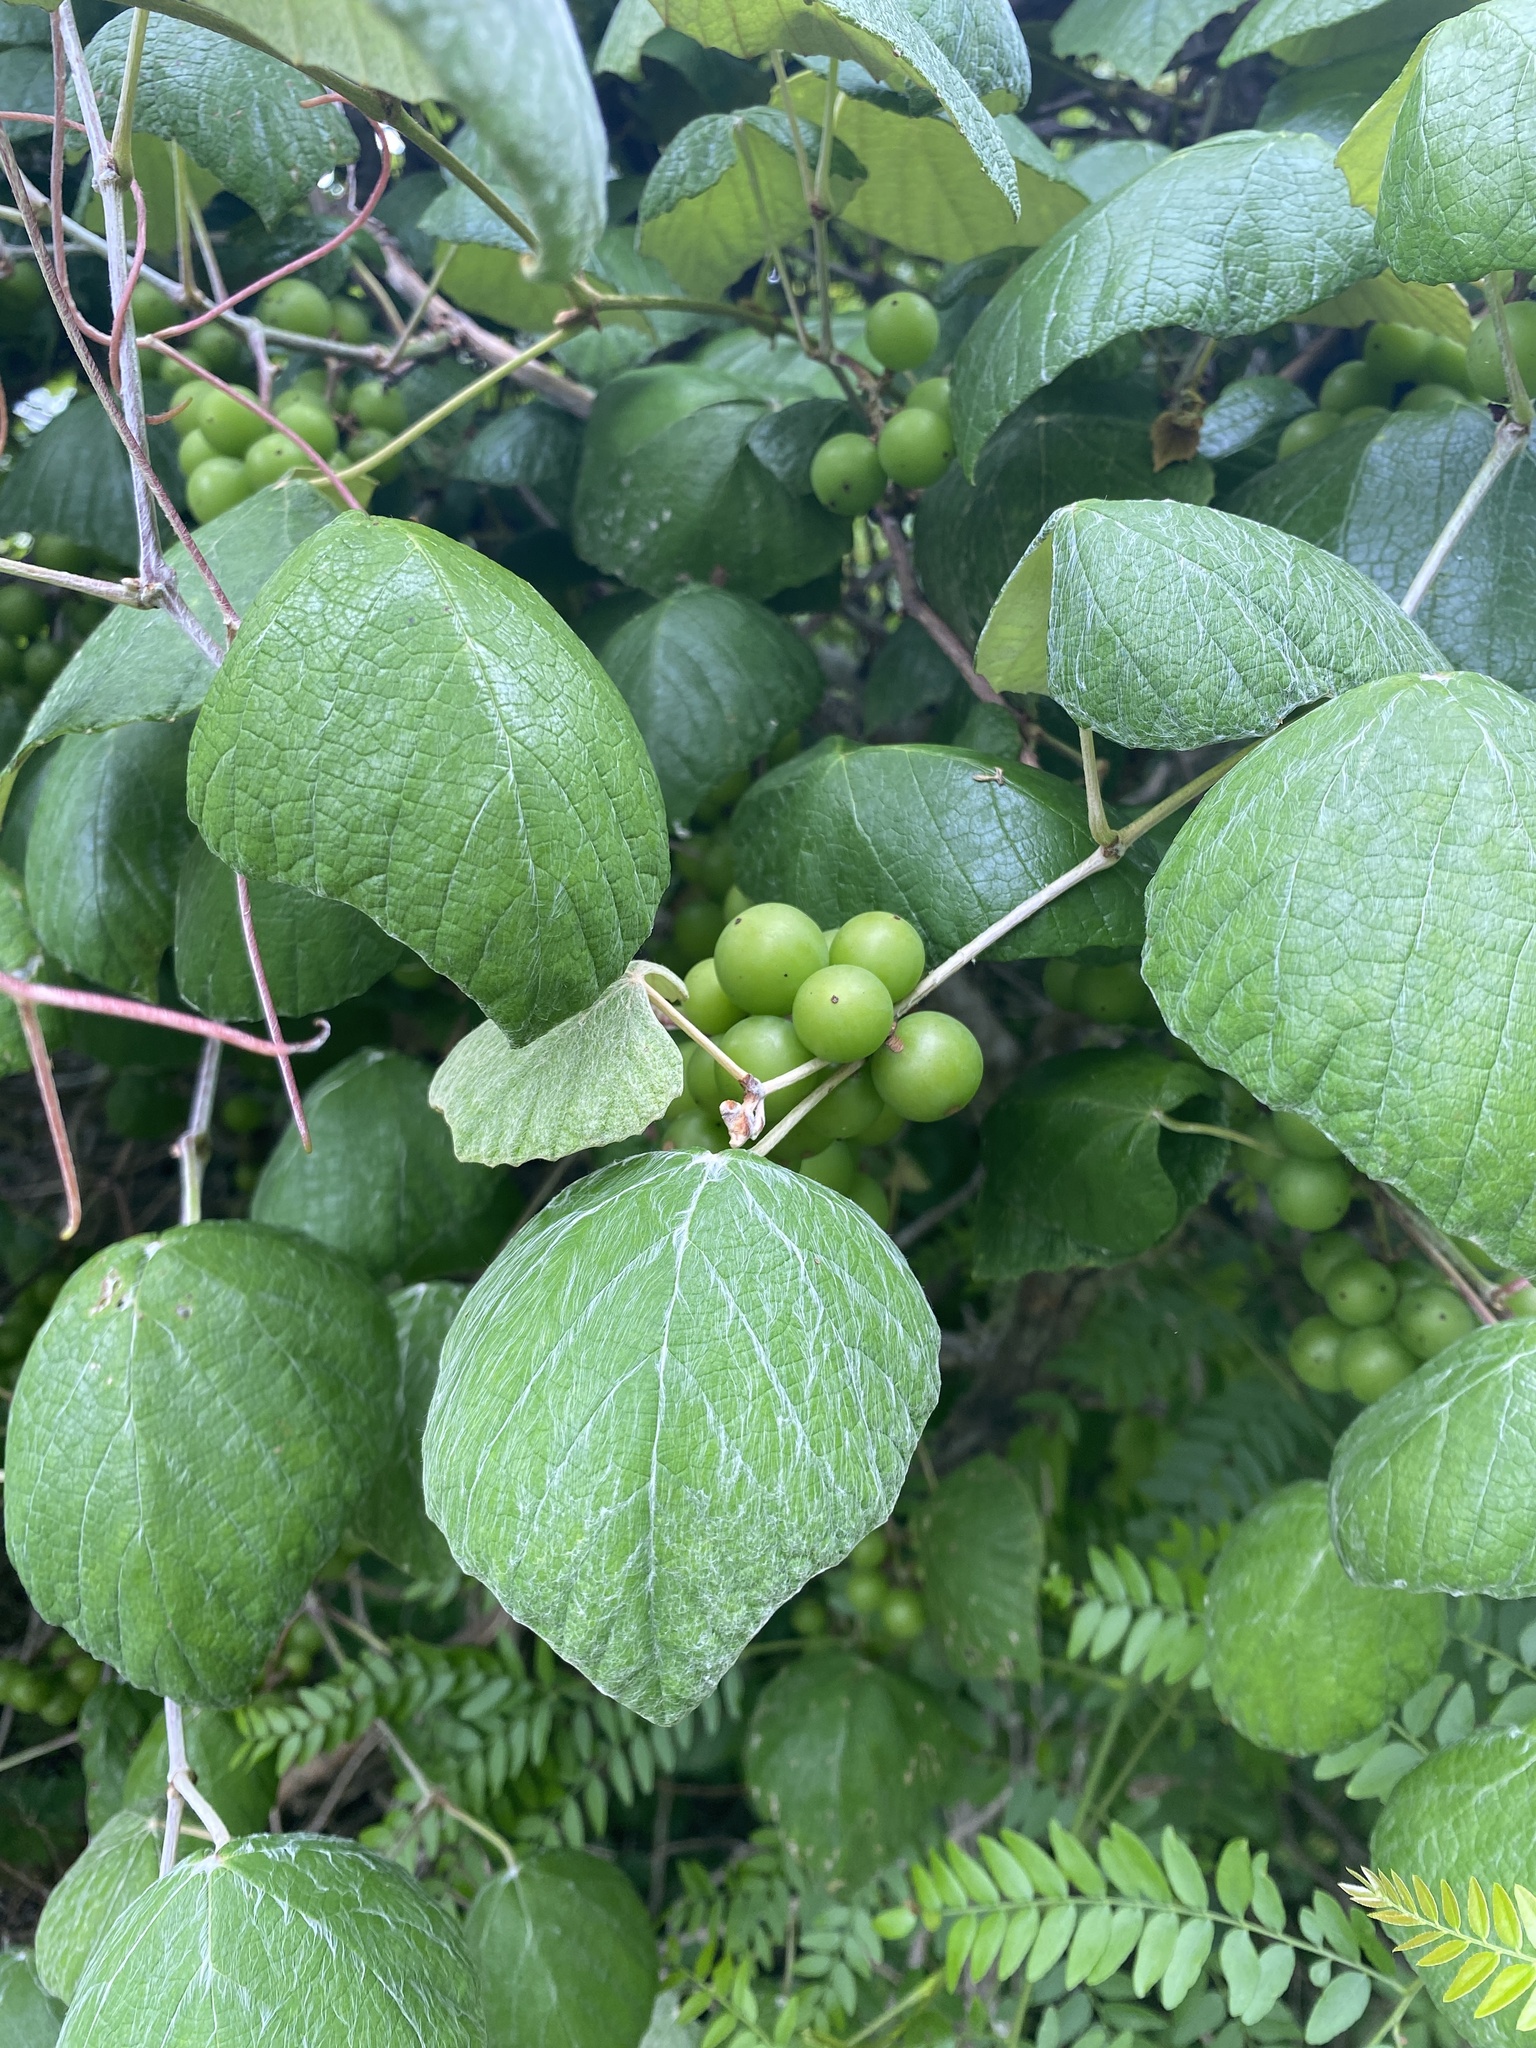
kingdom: Plantae
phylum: Tracheophyta
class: Magnoliopsida
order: Vitales
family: Vitaceae
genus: Vitis
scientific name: Vitis mustangensis
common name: Mustang grape
